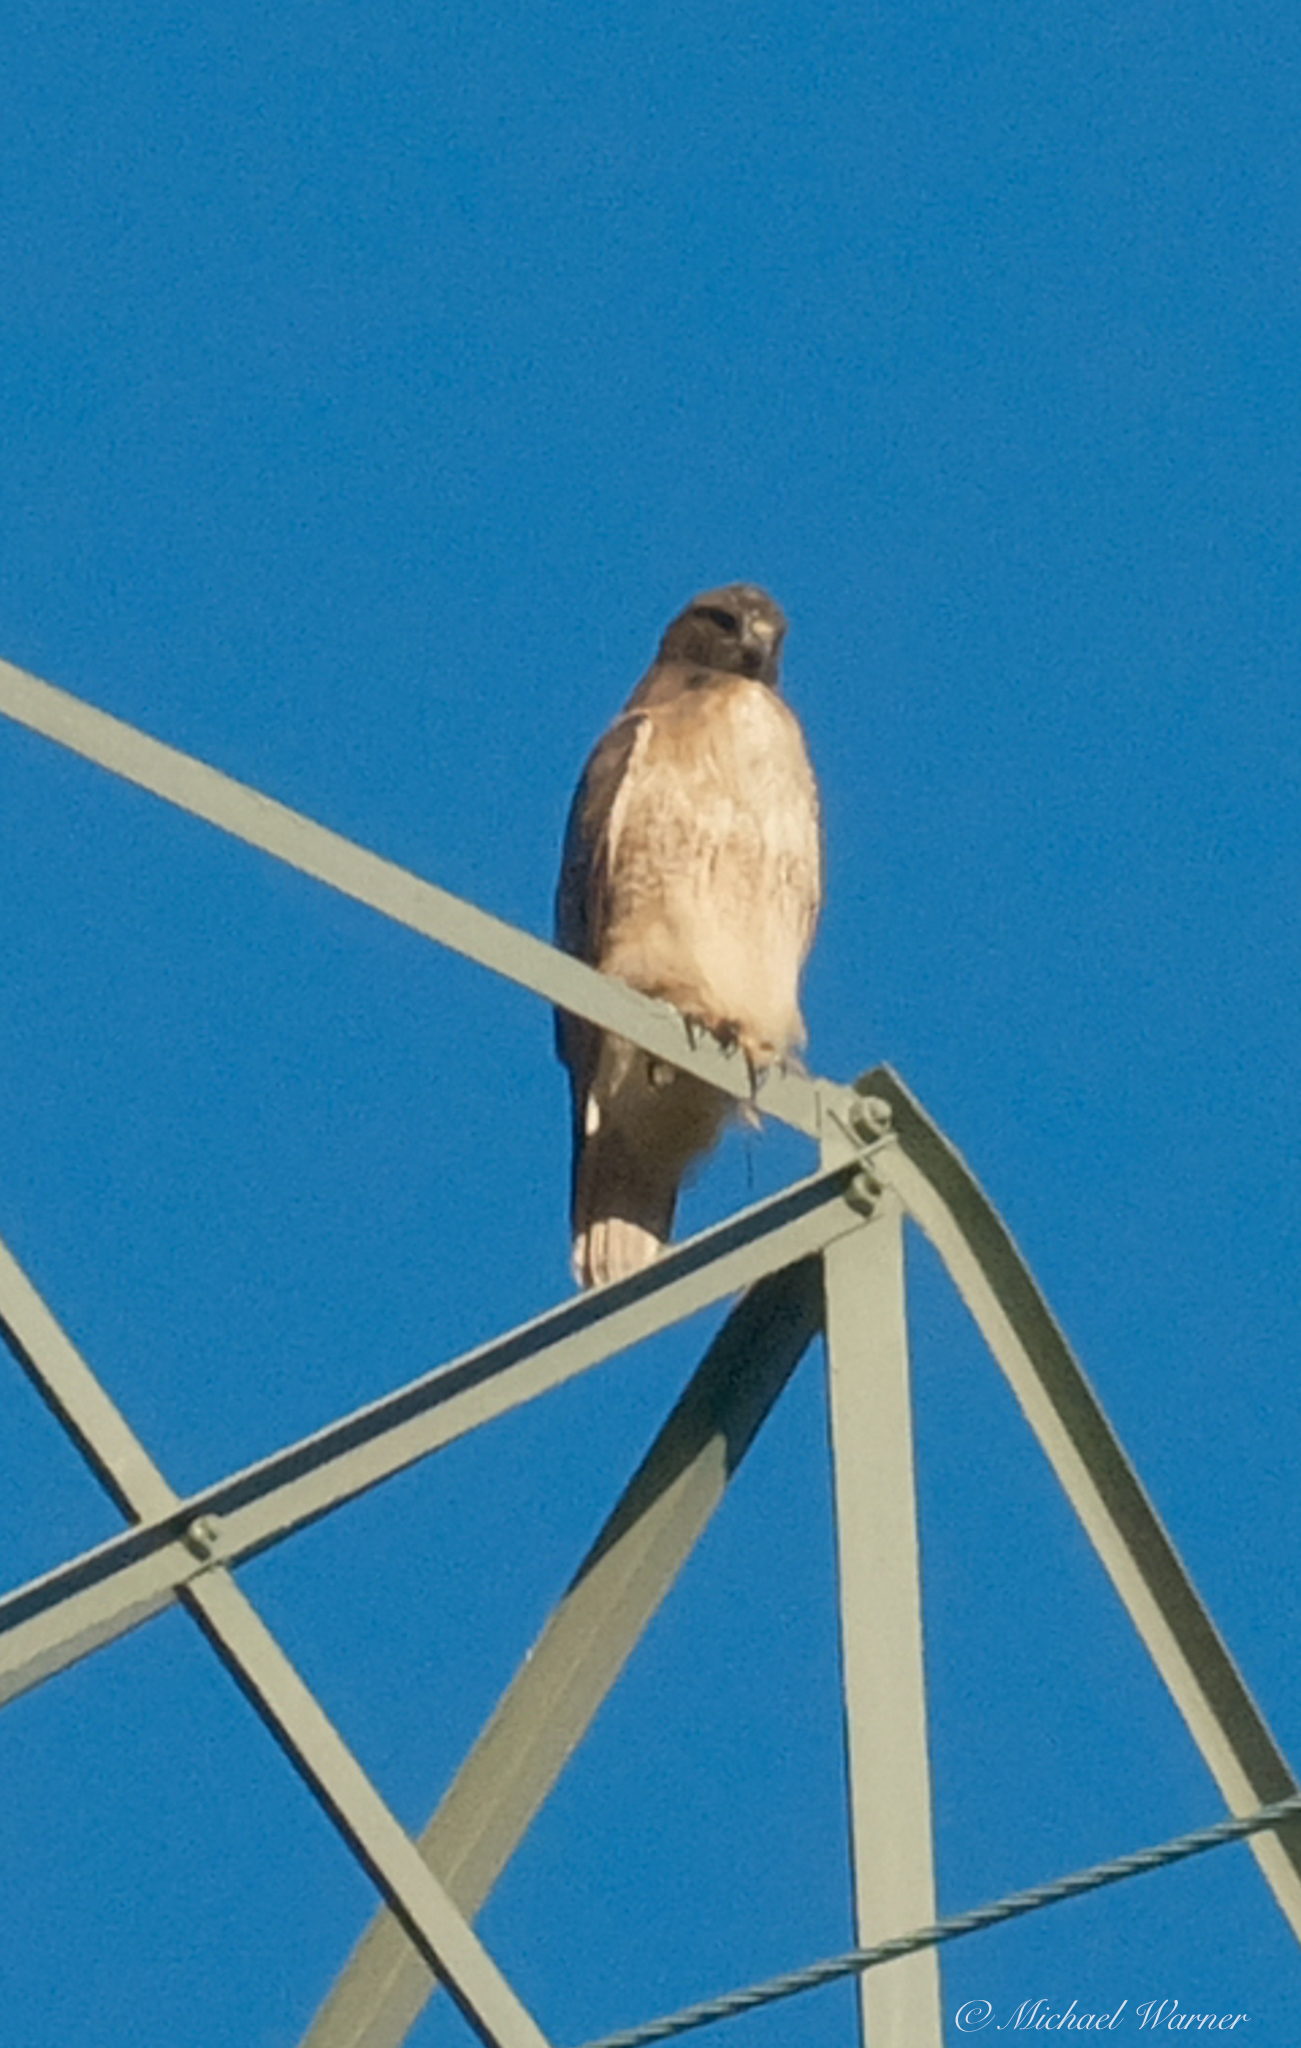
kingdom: Animalia
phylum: Chordata
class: Aves
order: Accipitriformes
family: Accipitridae
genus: Buteo
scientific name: Buteo jamaicensis
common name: Red-tailed hawk
